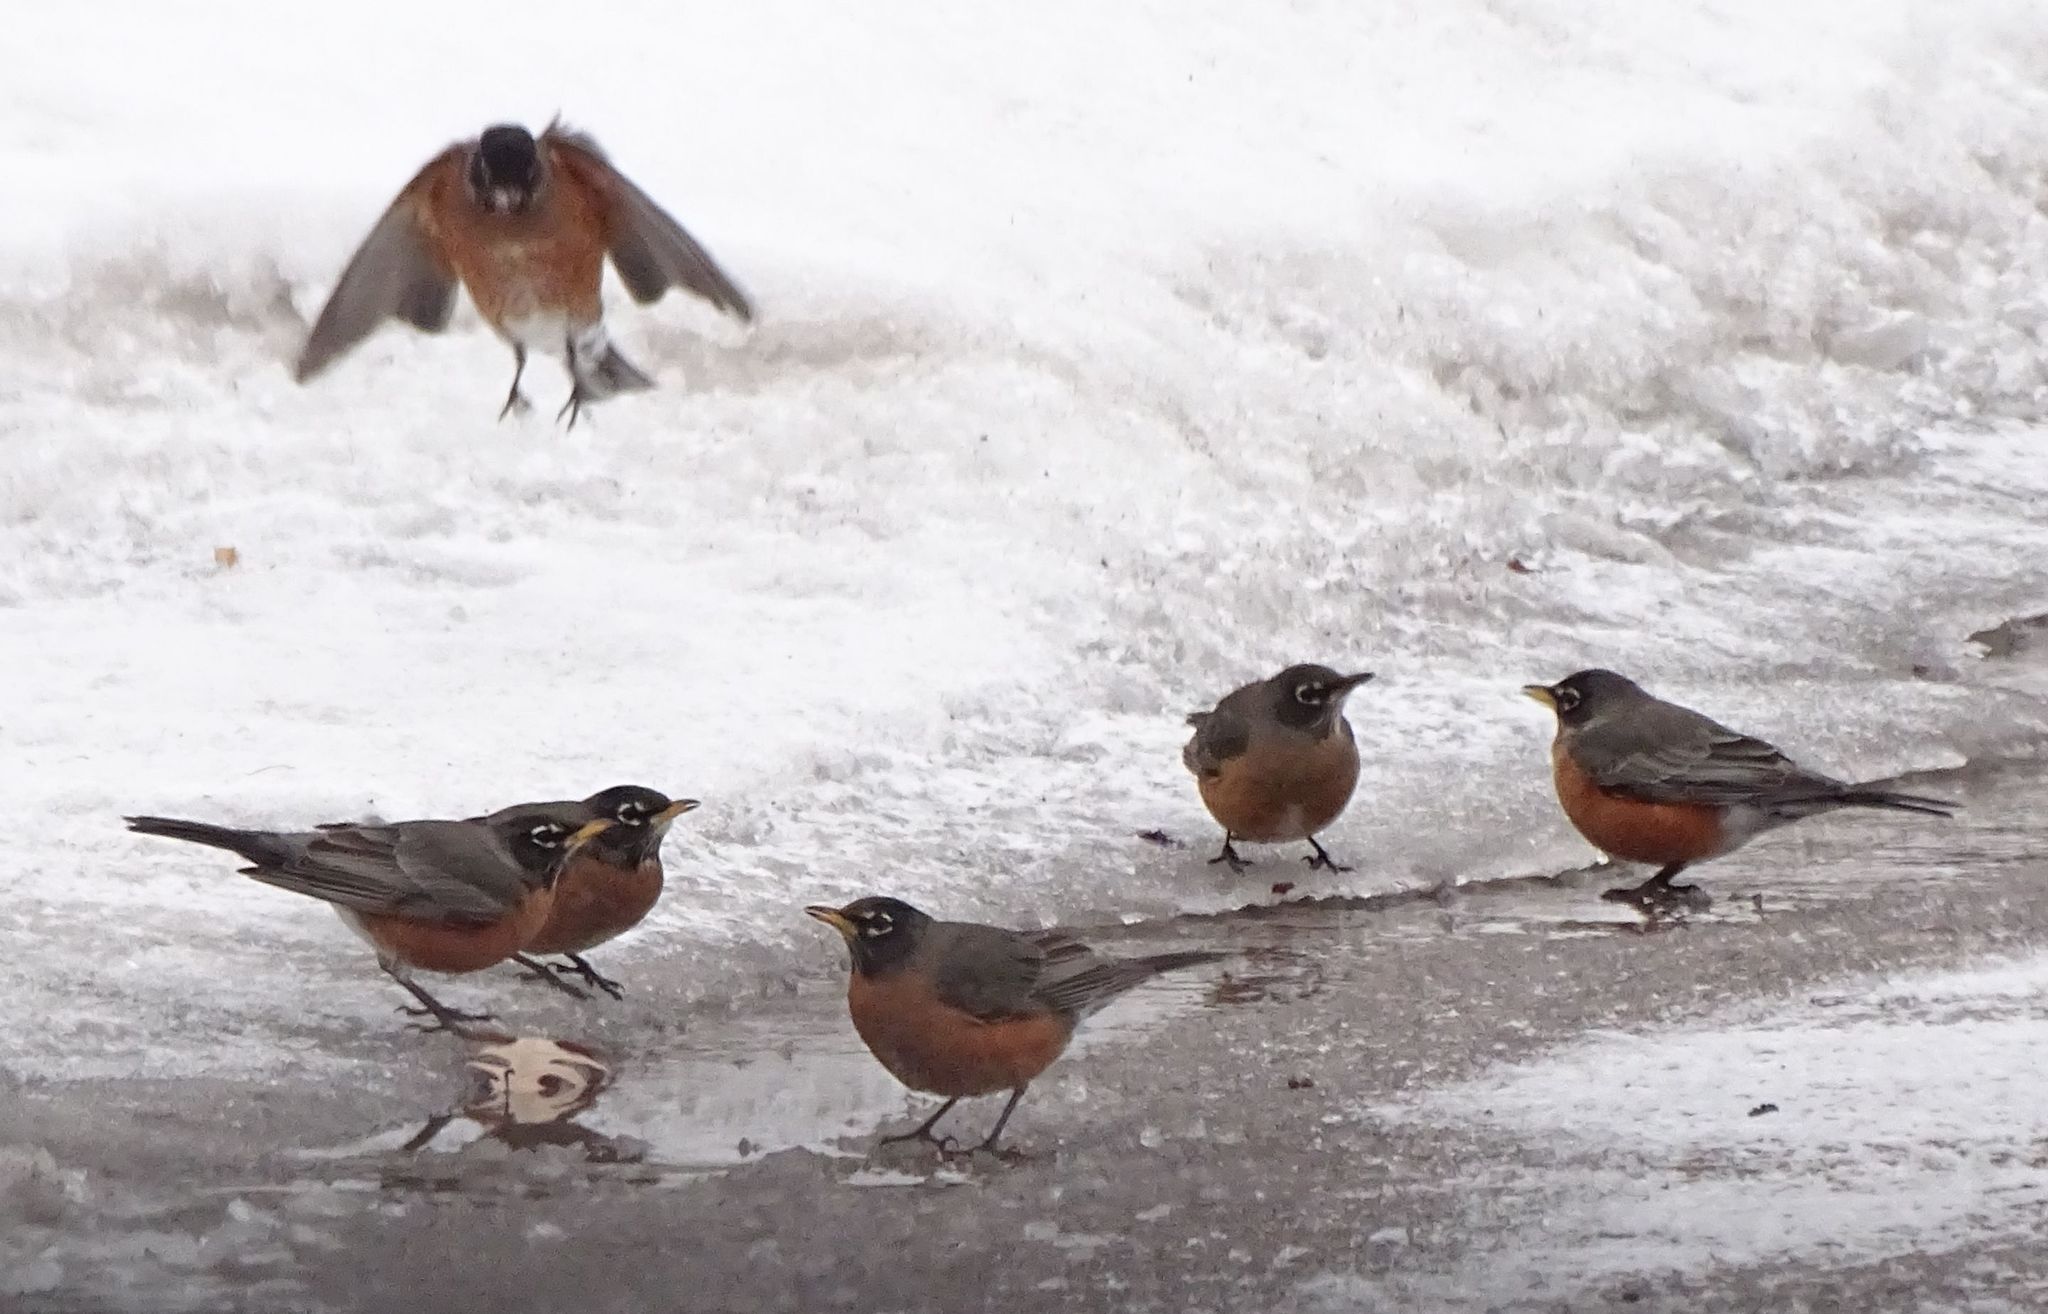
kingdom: Animalia
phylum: Chordata
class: Aves
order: Passeriformes
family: Turdidae
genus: Turdus
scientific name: Turdus migratorius
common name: American robin
